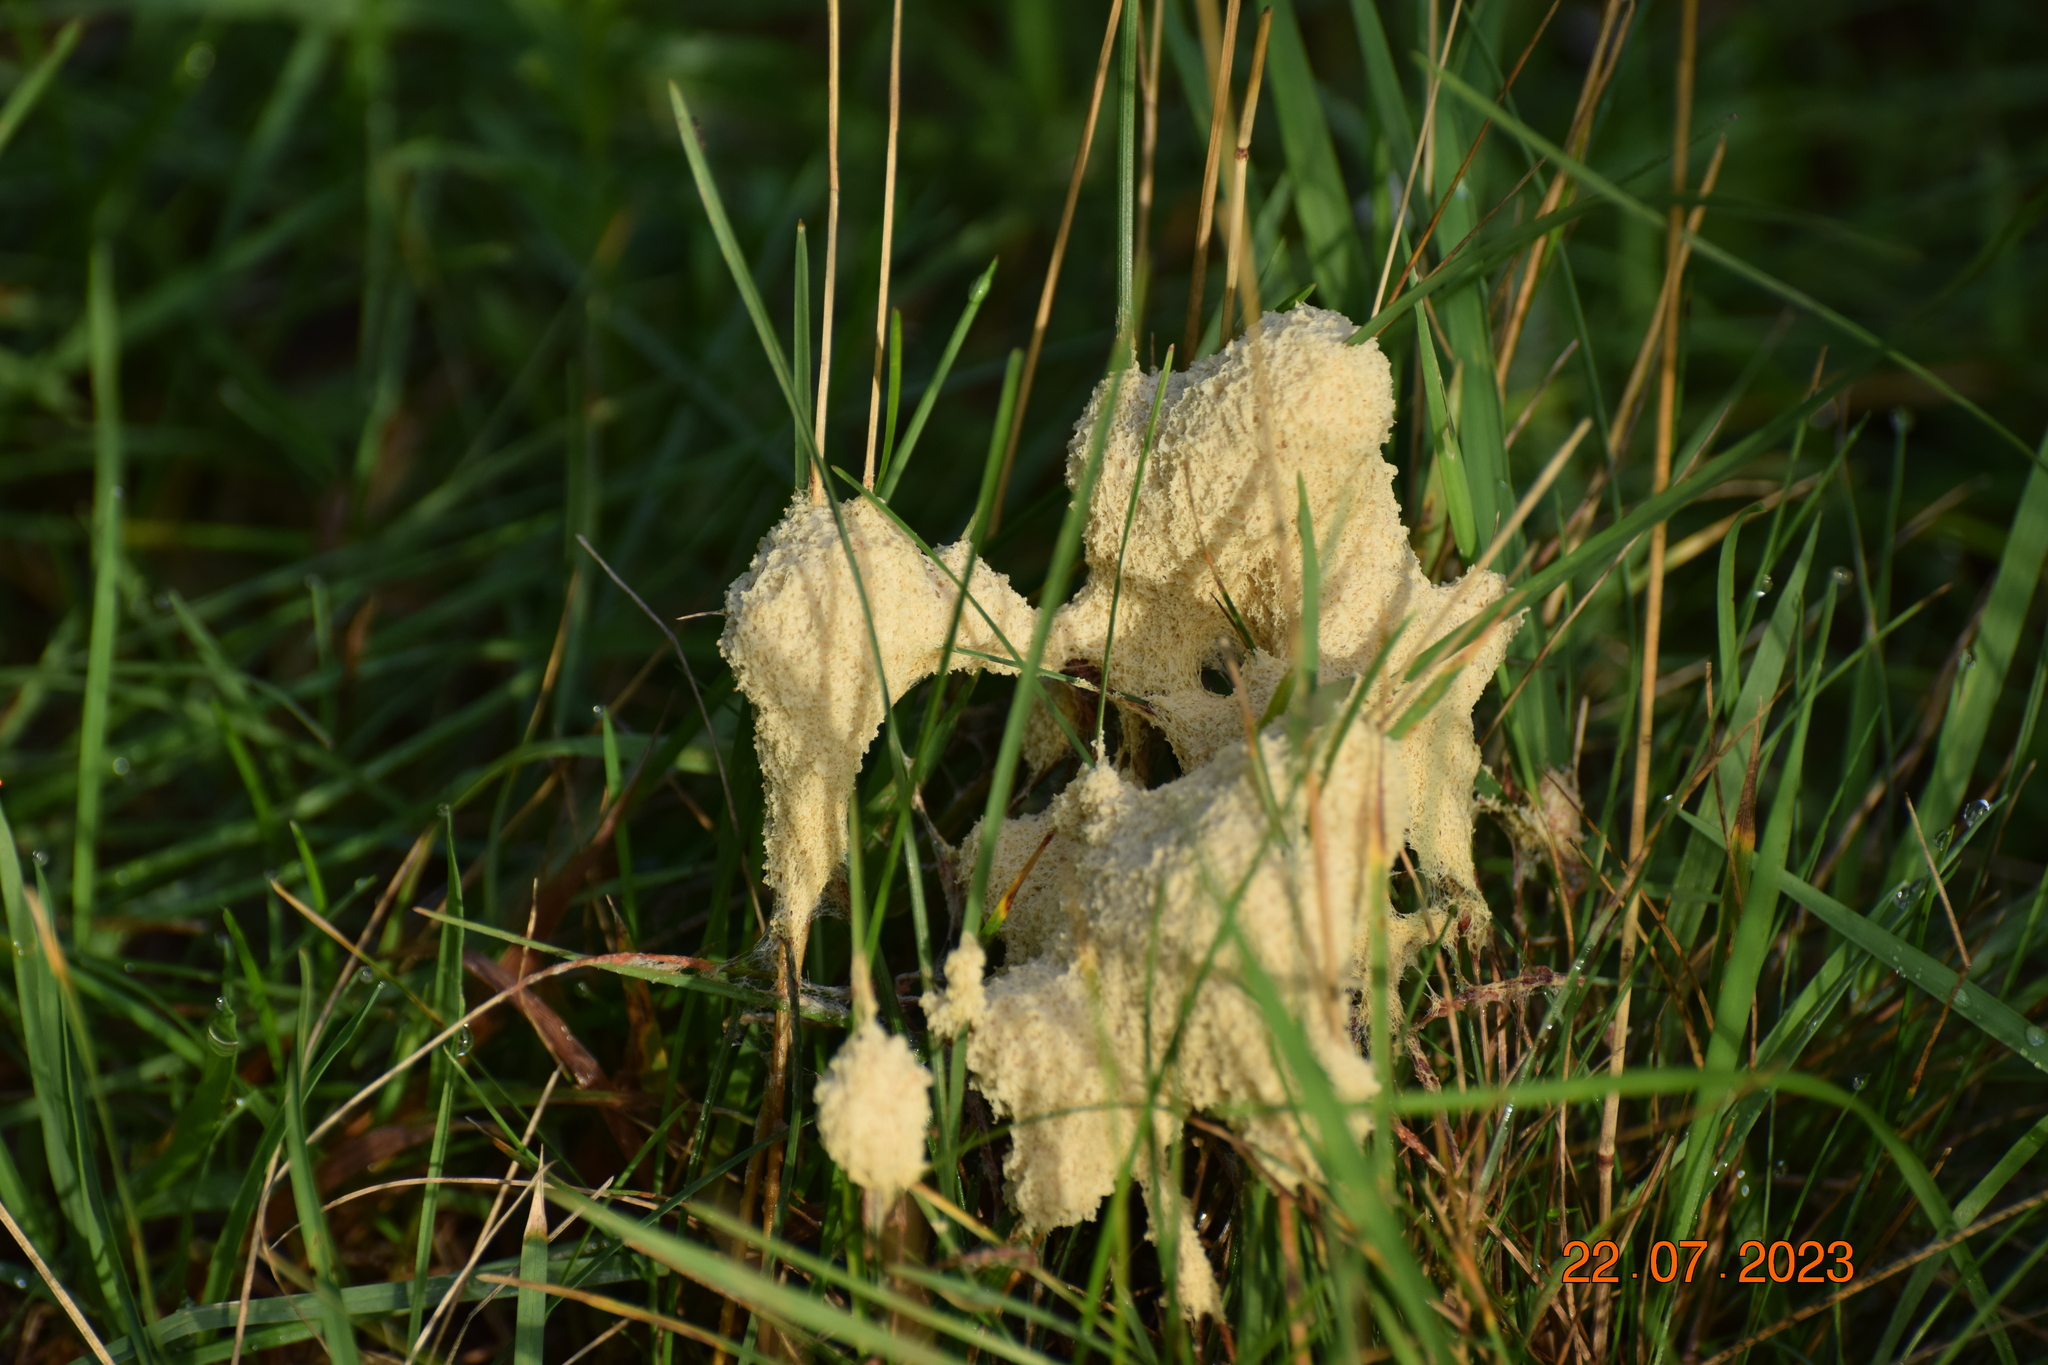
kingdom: Protozoa
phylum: Mycetozoa
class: Myxomycetes
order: Physarales
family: Physaraceae
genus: Didymium
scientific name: Didymium
